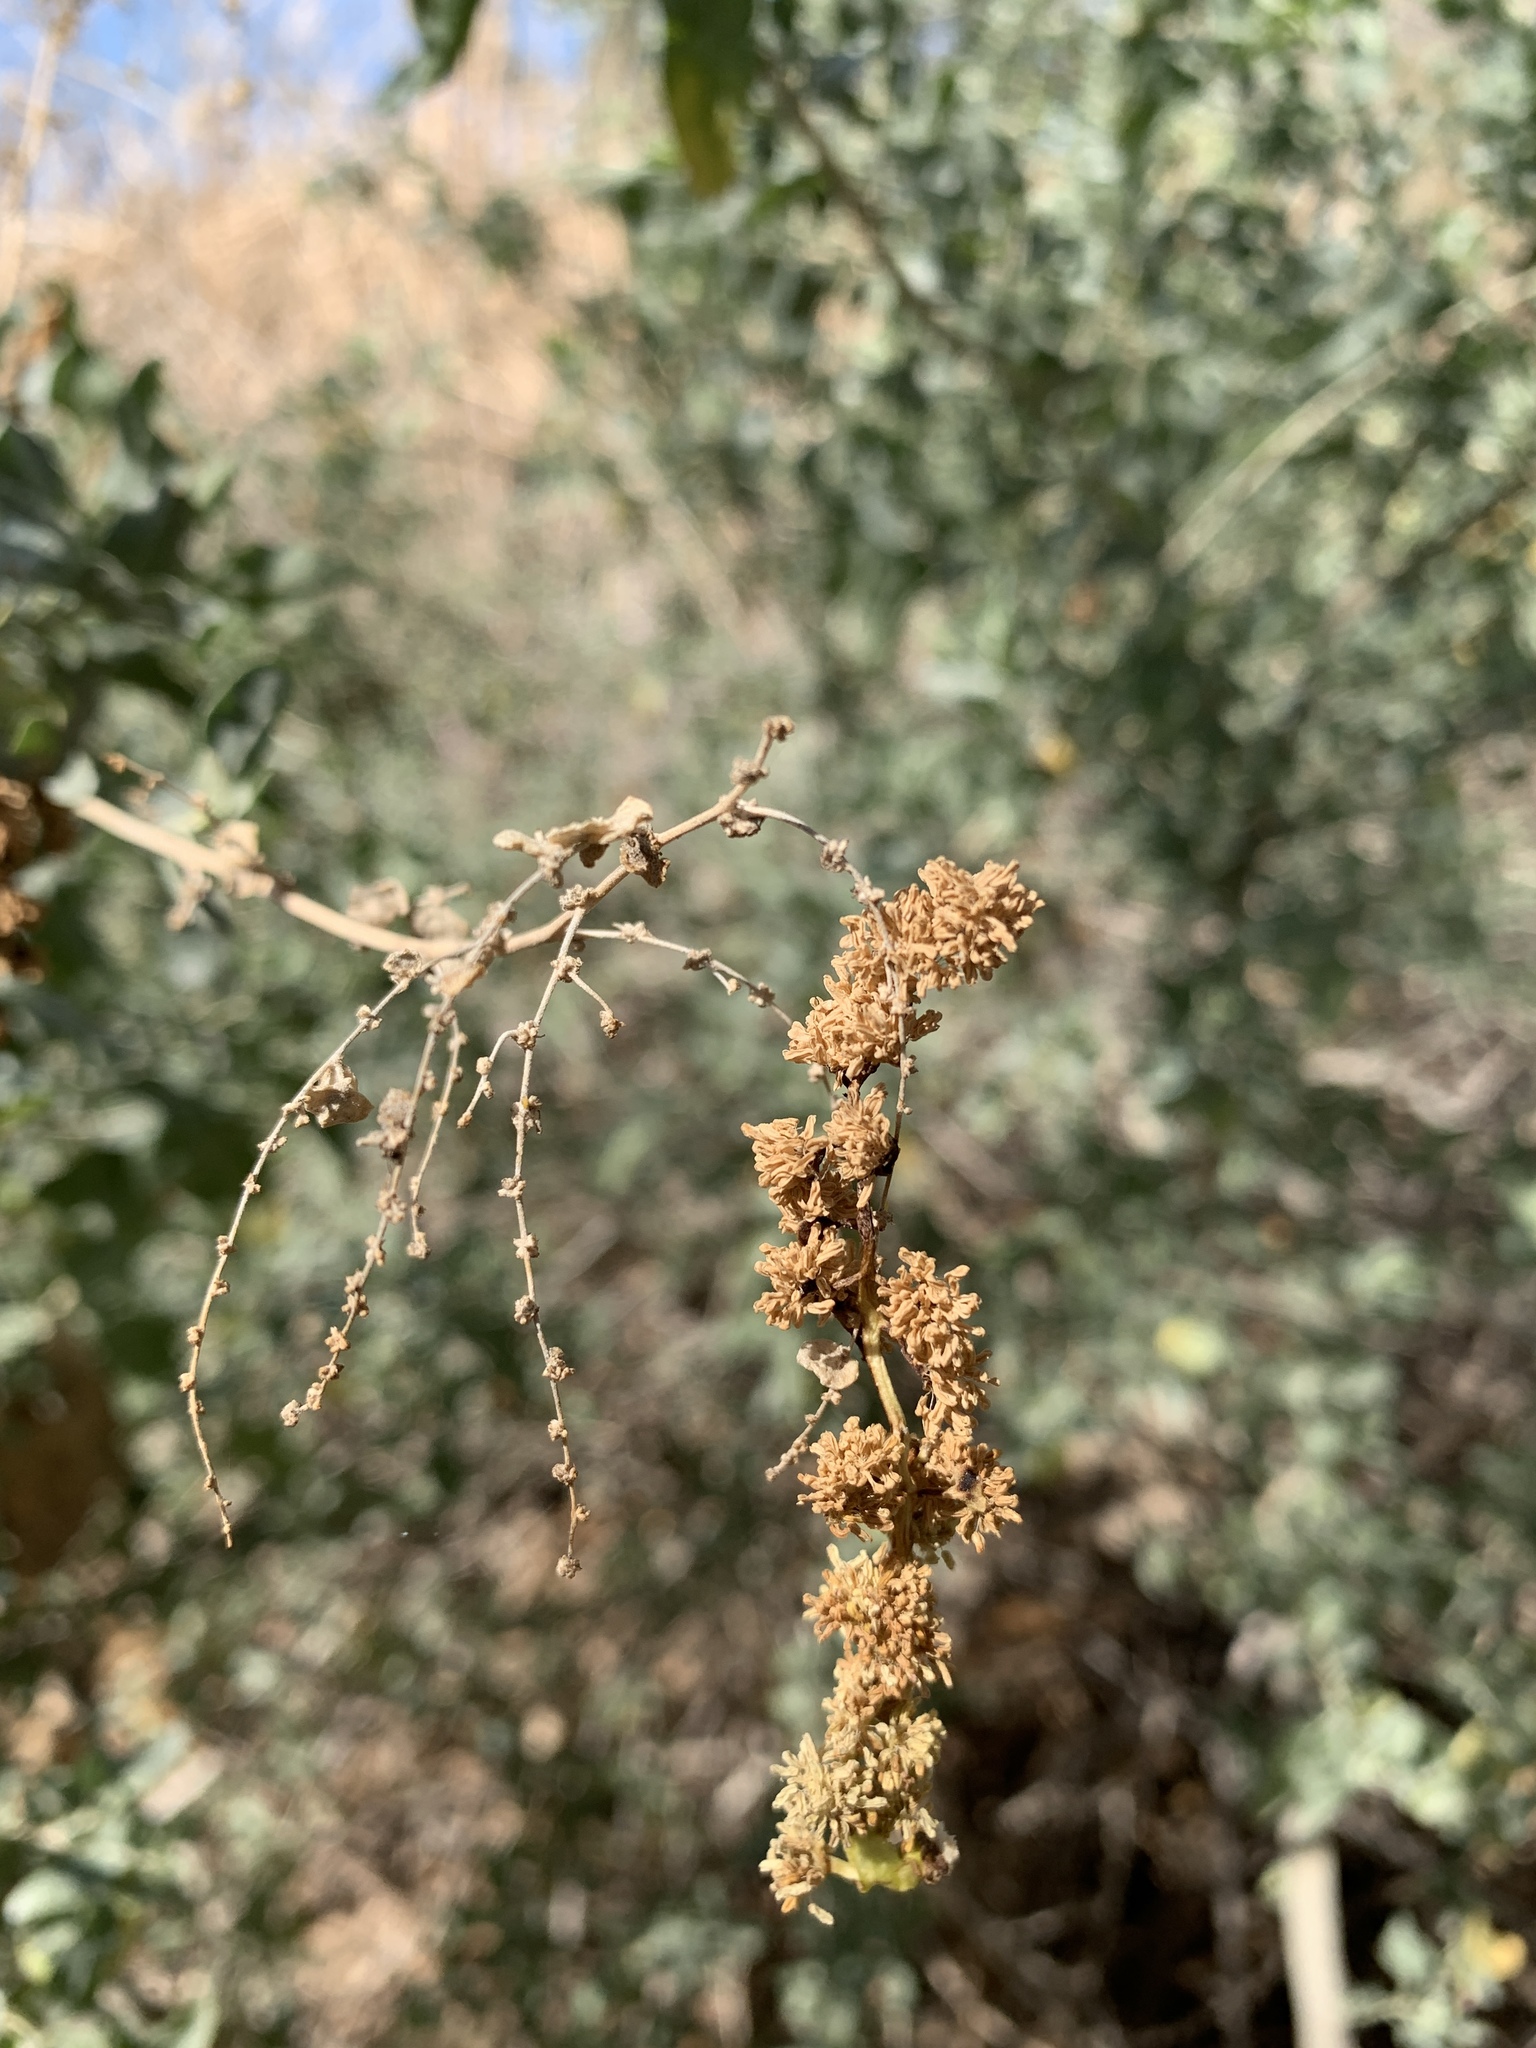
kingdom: Plantae
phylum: Tracheophyta
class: Magnoliopsida
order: Caryophyllales
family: Amaranthaceae
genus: Atriplex
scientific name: Atriplex lentiformis
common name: Big saltbush
